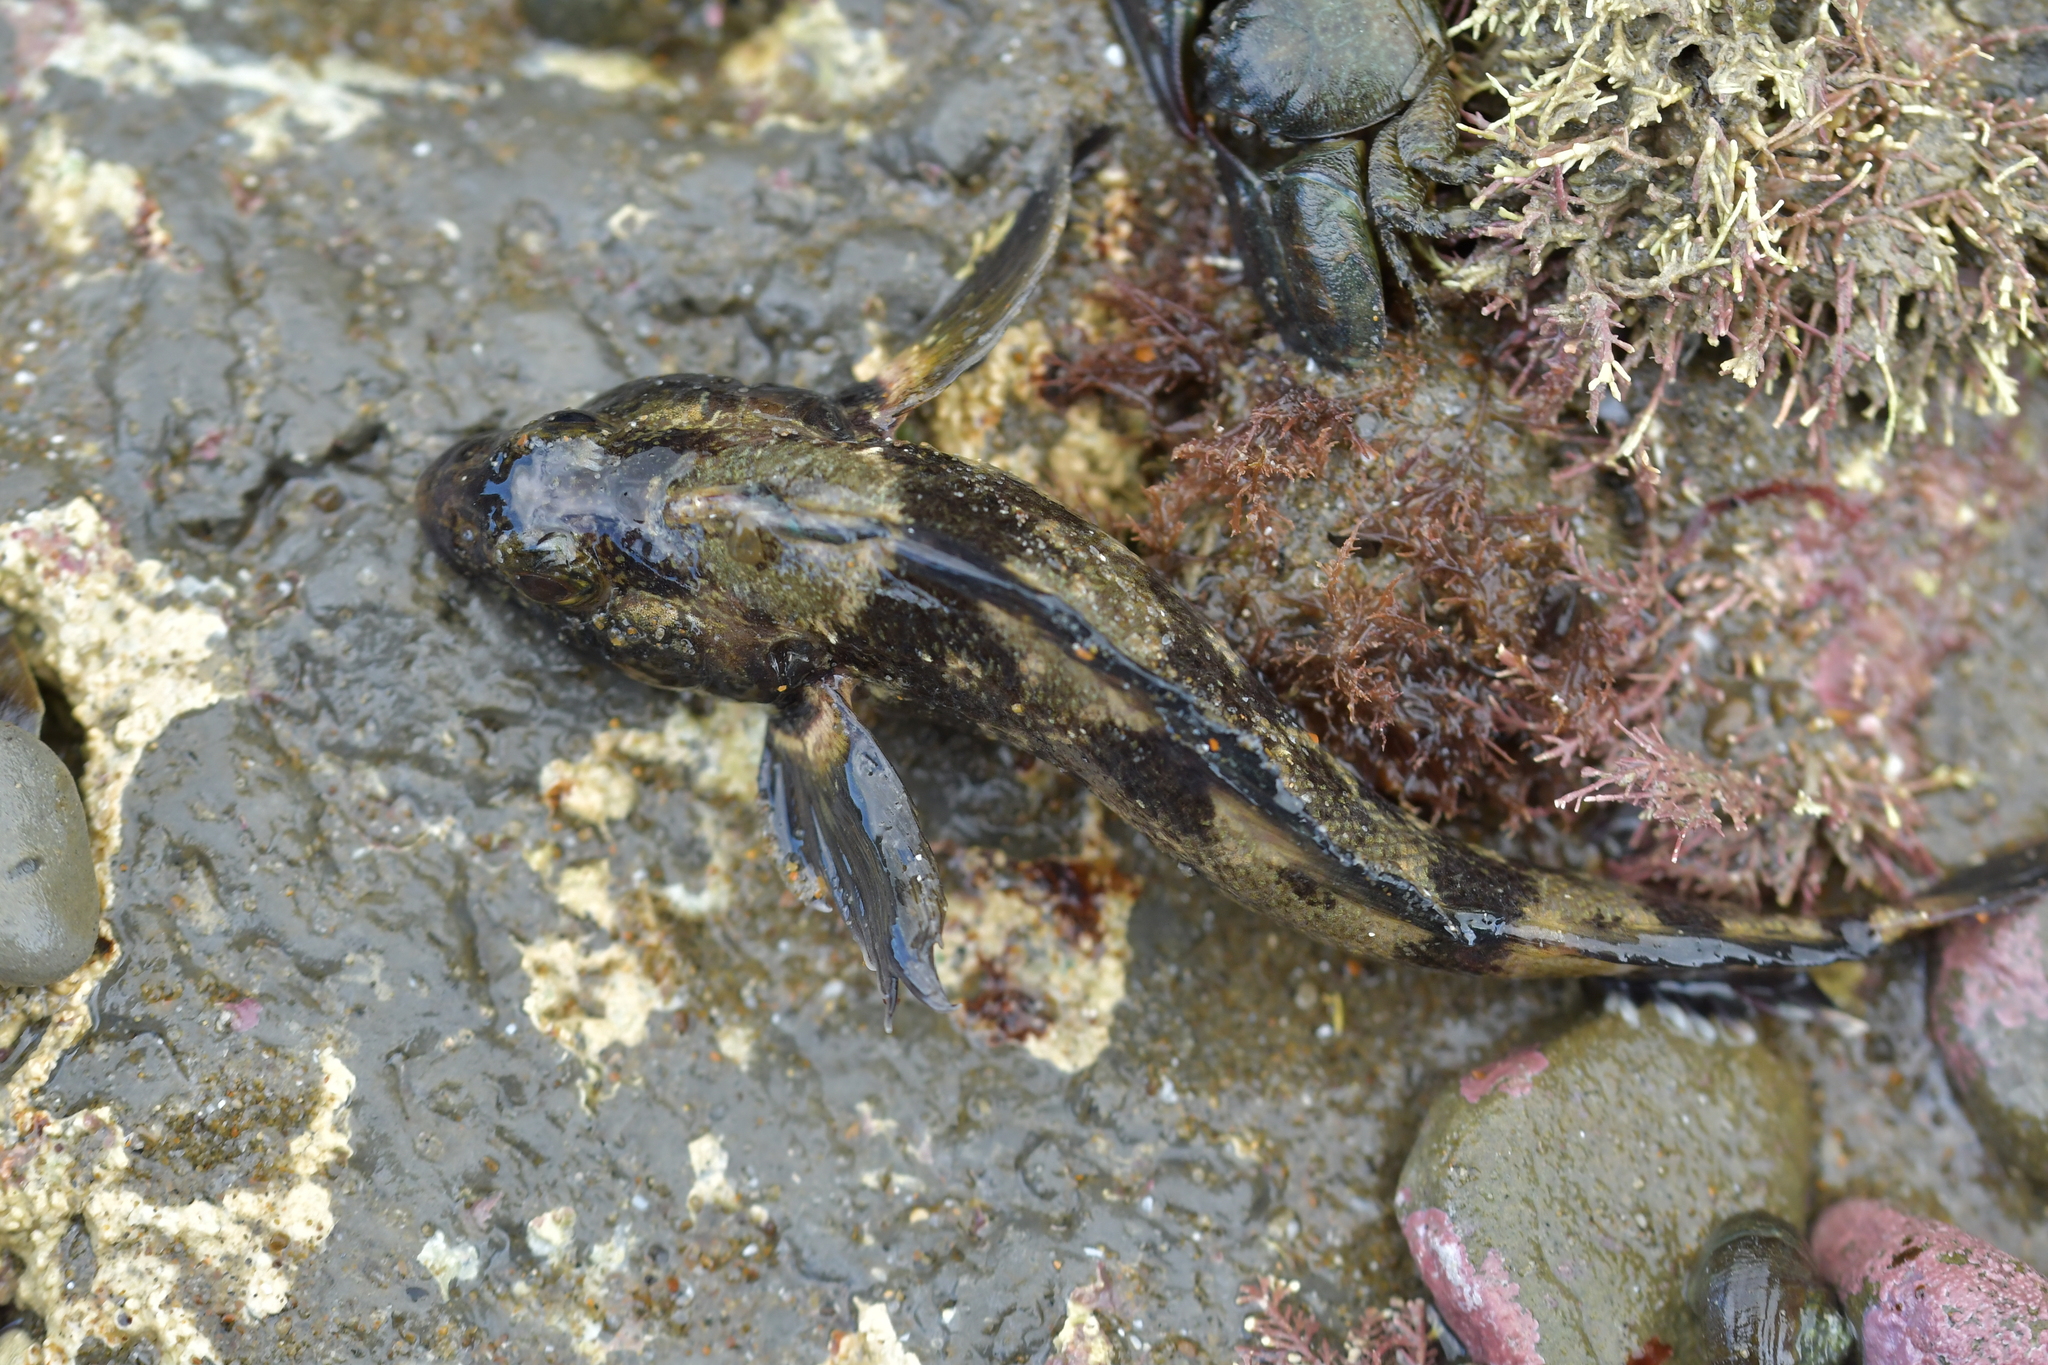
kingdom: Animalia
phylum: Chordata
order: Perciformes
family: Tripterygiidae
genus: Forsterygion
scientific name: Forsterygion gymnotum
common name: Multifid-tentacled robust triplefin
